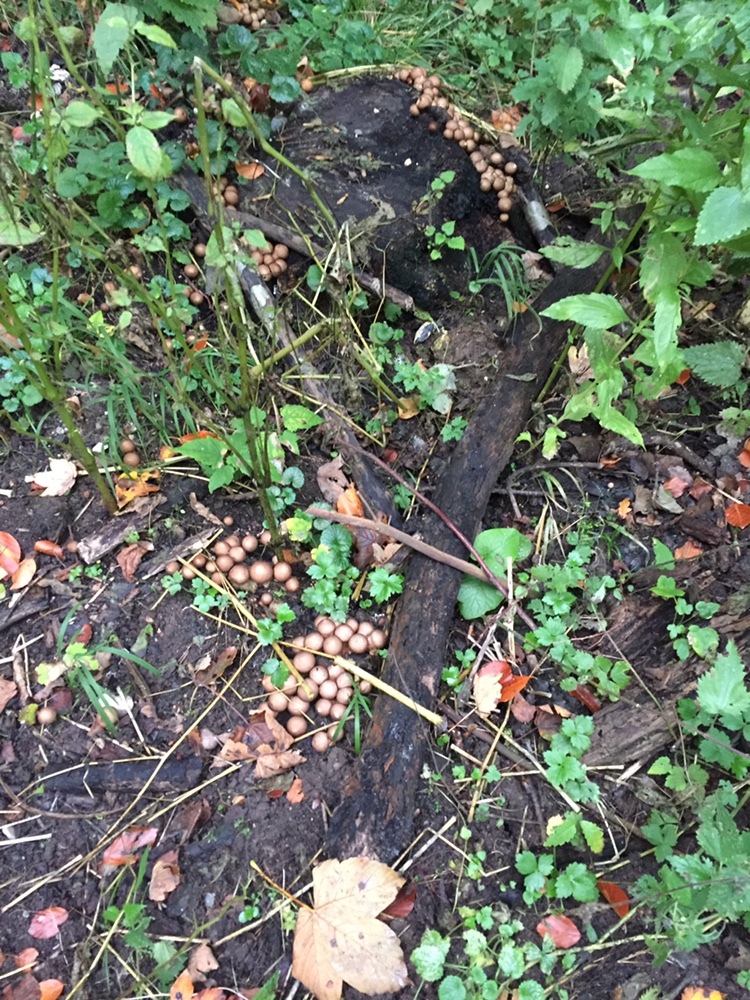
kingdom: Fungi
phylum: Basidiomycota
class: Agaricomycetes
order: Agaricales
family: Lycoperdaceae
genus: Apioperdon
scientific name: Apioperdon pyriforme
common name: Pear-shaped puffball
